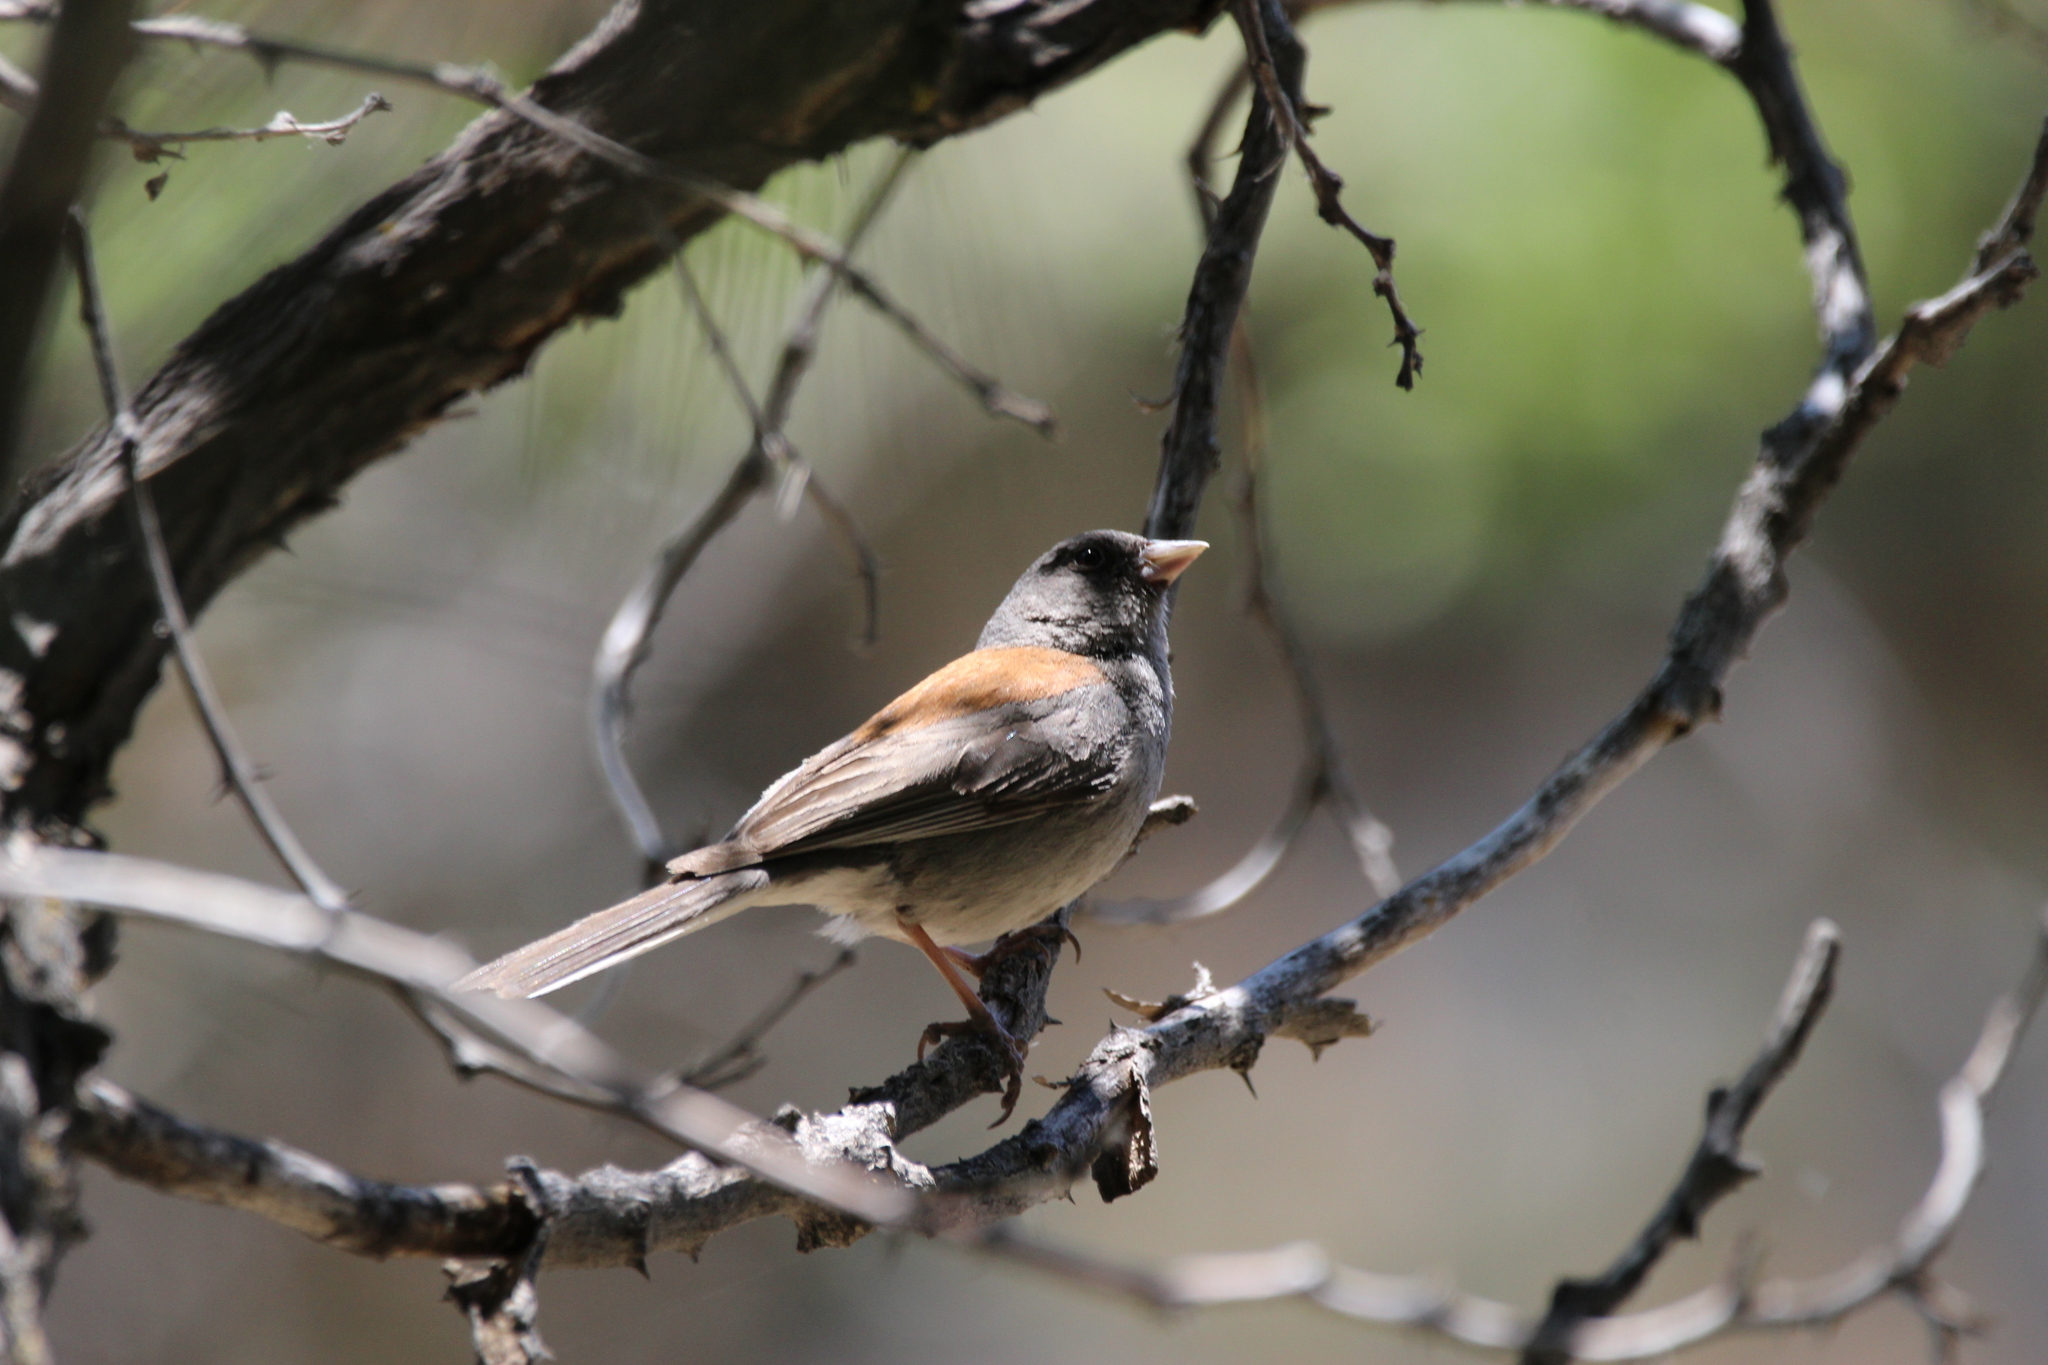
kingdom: Animalia
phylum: Chordata
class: Aves
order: Passeriformes
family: Passerellidae
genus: Junco
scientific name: Junco hyemalis
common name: Dark-eyed junco
